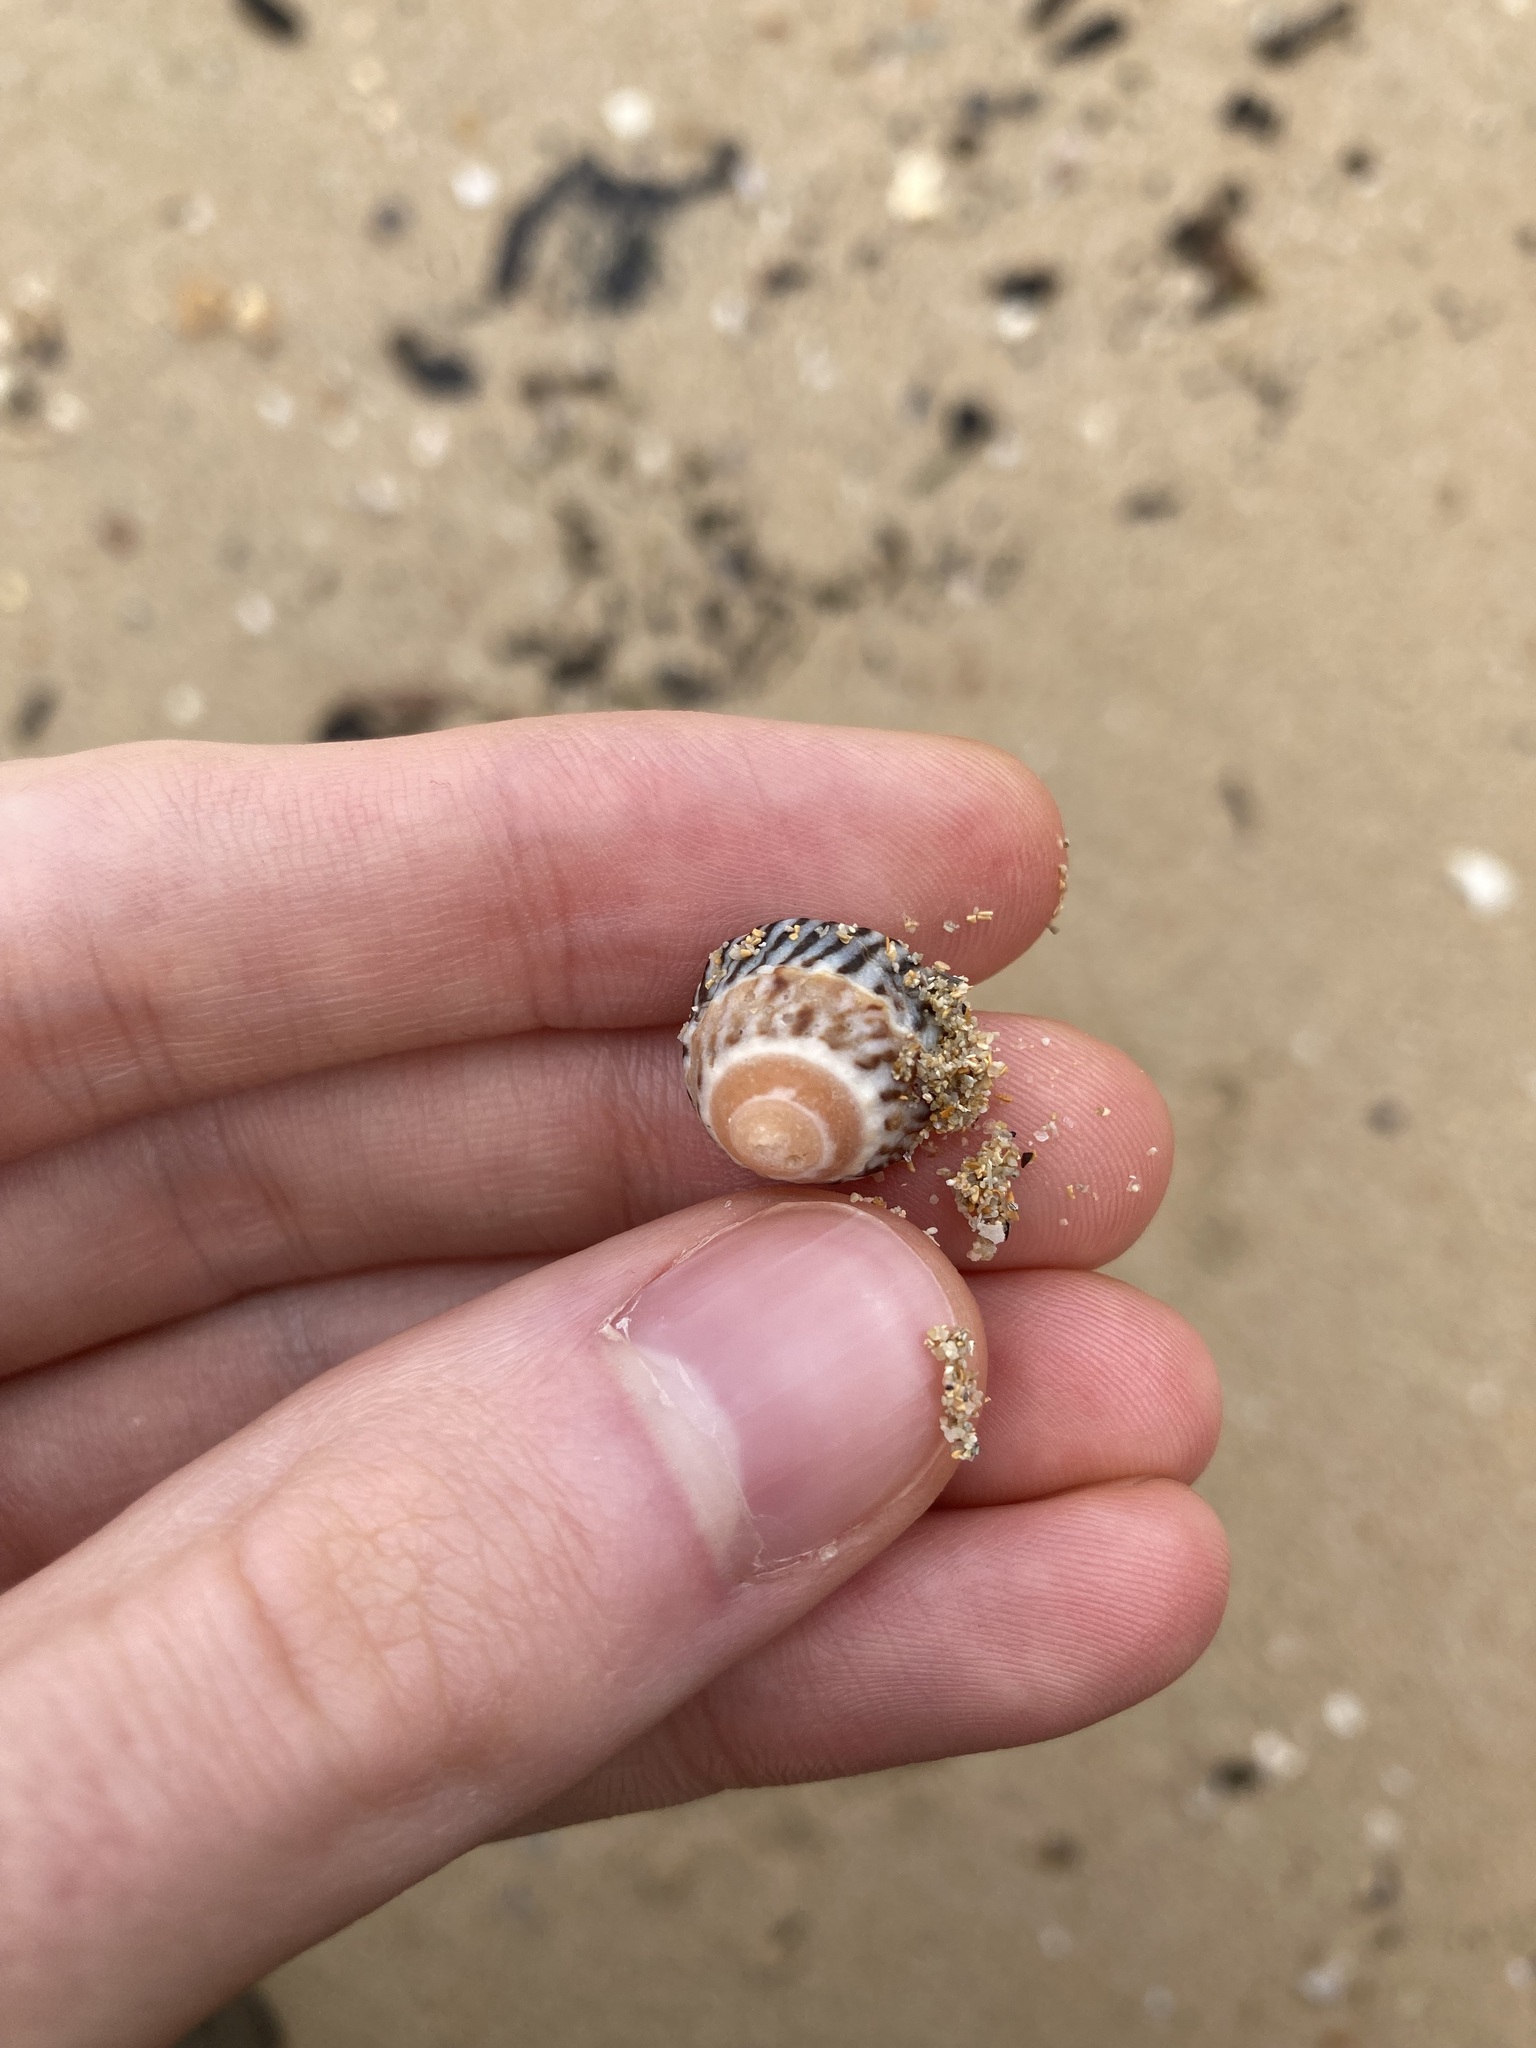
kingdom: Animalia
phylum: Mollusca
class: Gastropoda
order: Littorinimorpha
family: Littorinidae
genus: Bembicium
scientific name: Bembicium nanum
